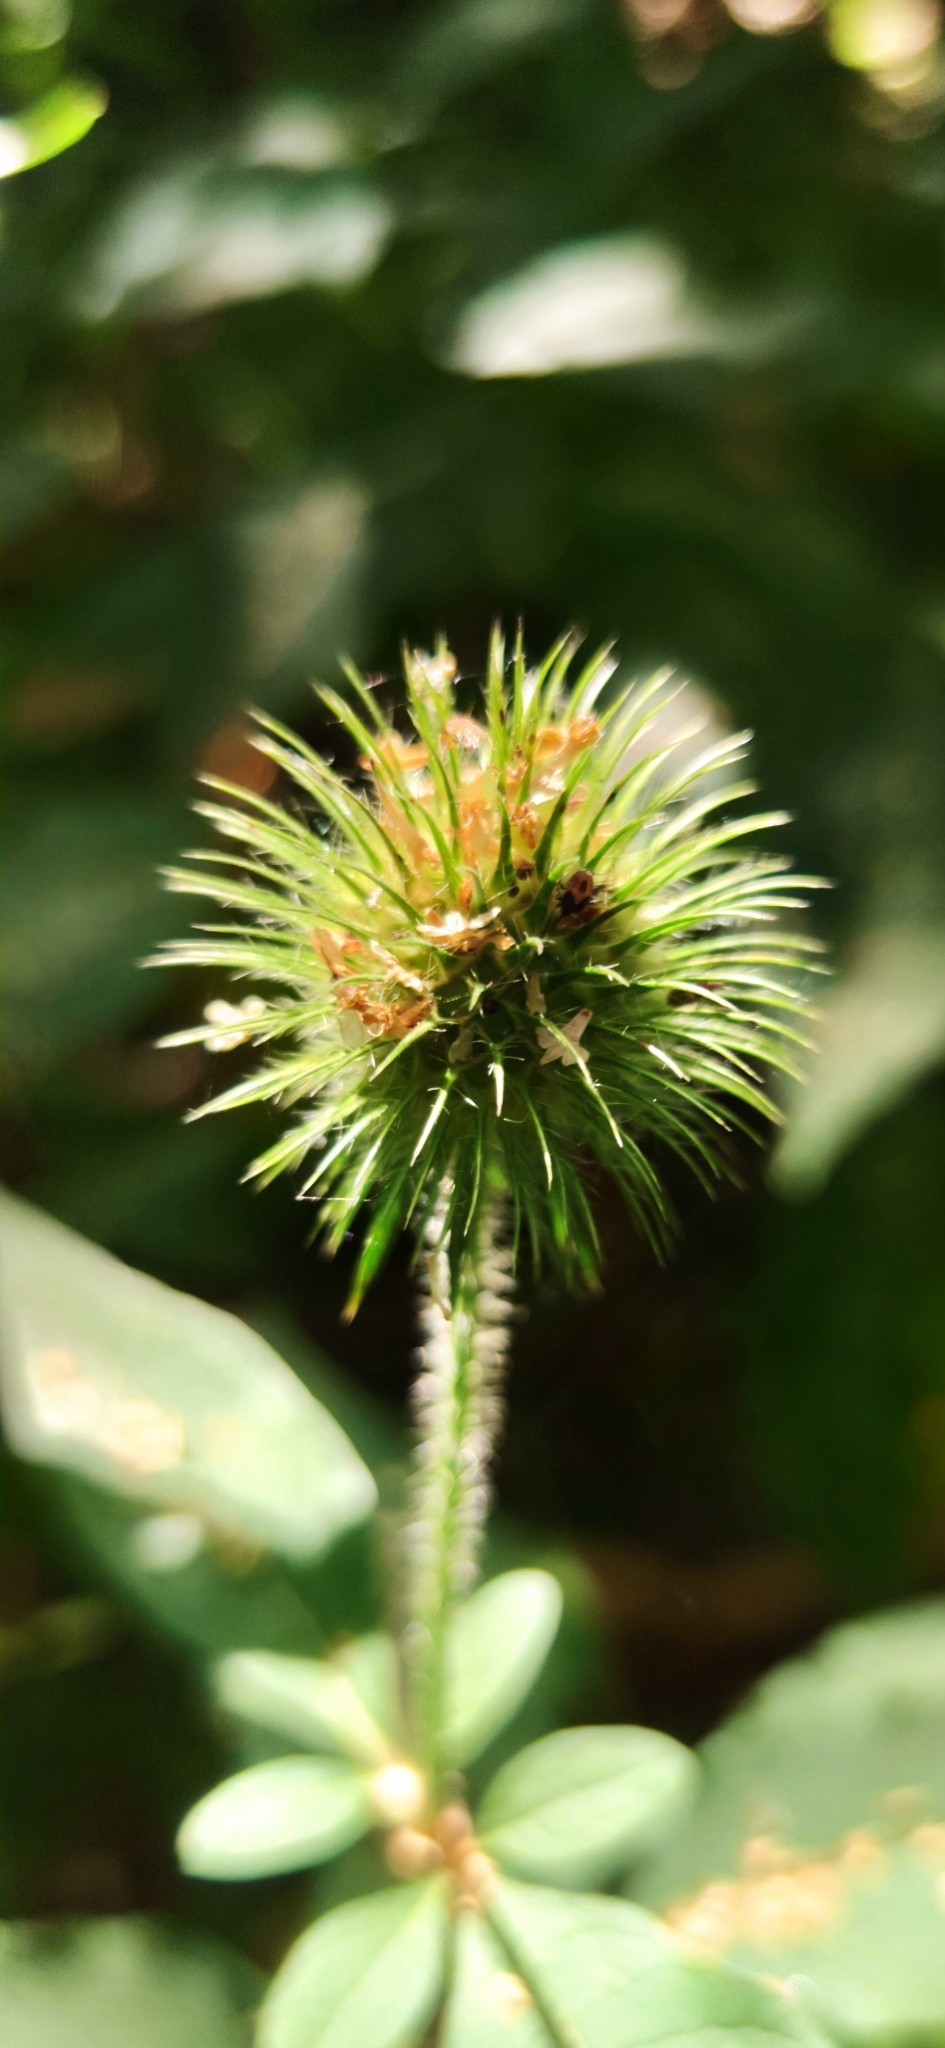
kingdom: Plantae
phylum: Tracheophyta
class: Magnoliopsida
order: Dipsacales
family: Caprifoliaceae
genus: Dipsacus
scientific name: Dipsacus strigosus
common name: Yellow-flowered teasel
